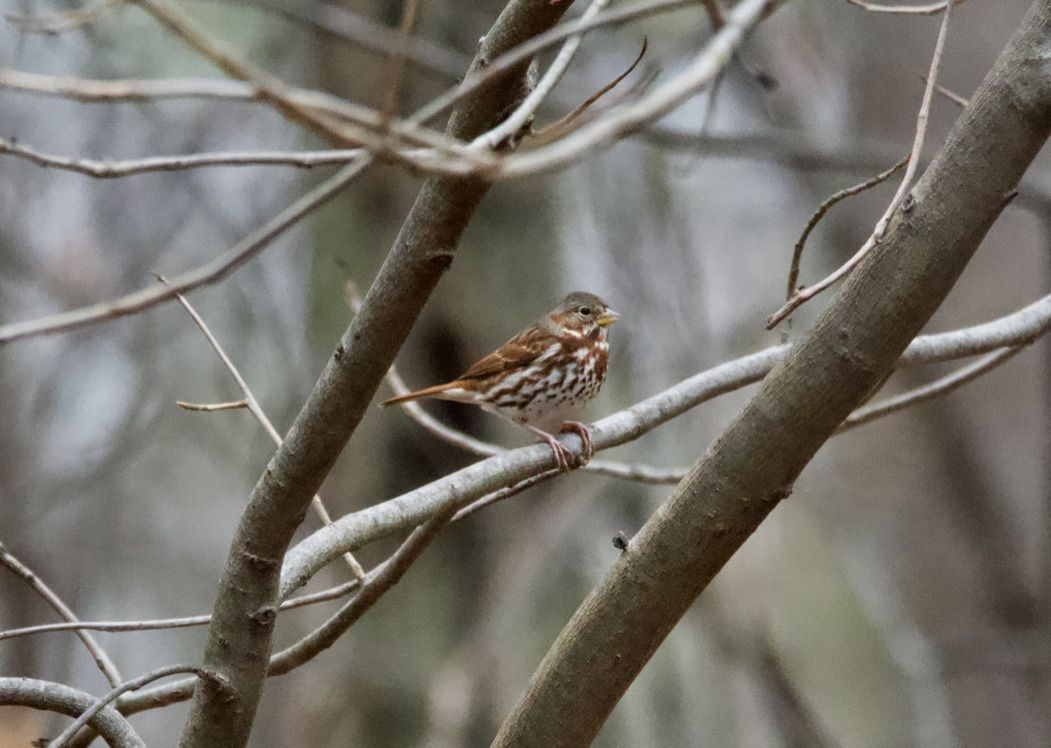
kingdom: Animalia
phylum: Chordata
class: Aves
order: Passeriformes
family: Passerellidae
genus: Passerella
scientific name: Passerella iliaca
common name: Fox sparrow
